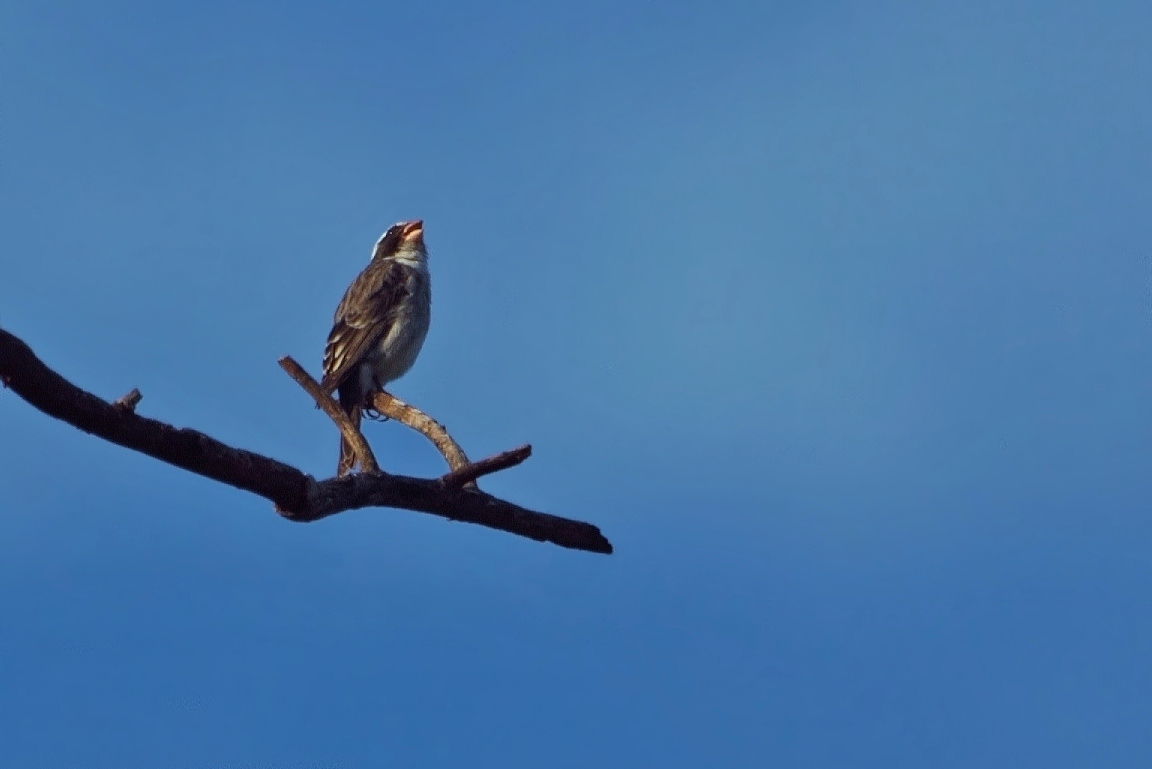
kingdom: Animalia
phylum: Chordata
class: Aves
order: Passeriformes
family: Fringillidae
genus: Crithagra
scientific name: Crithagra mennelli
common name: Black-eared seedeater
